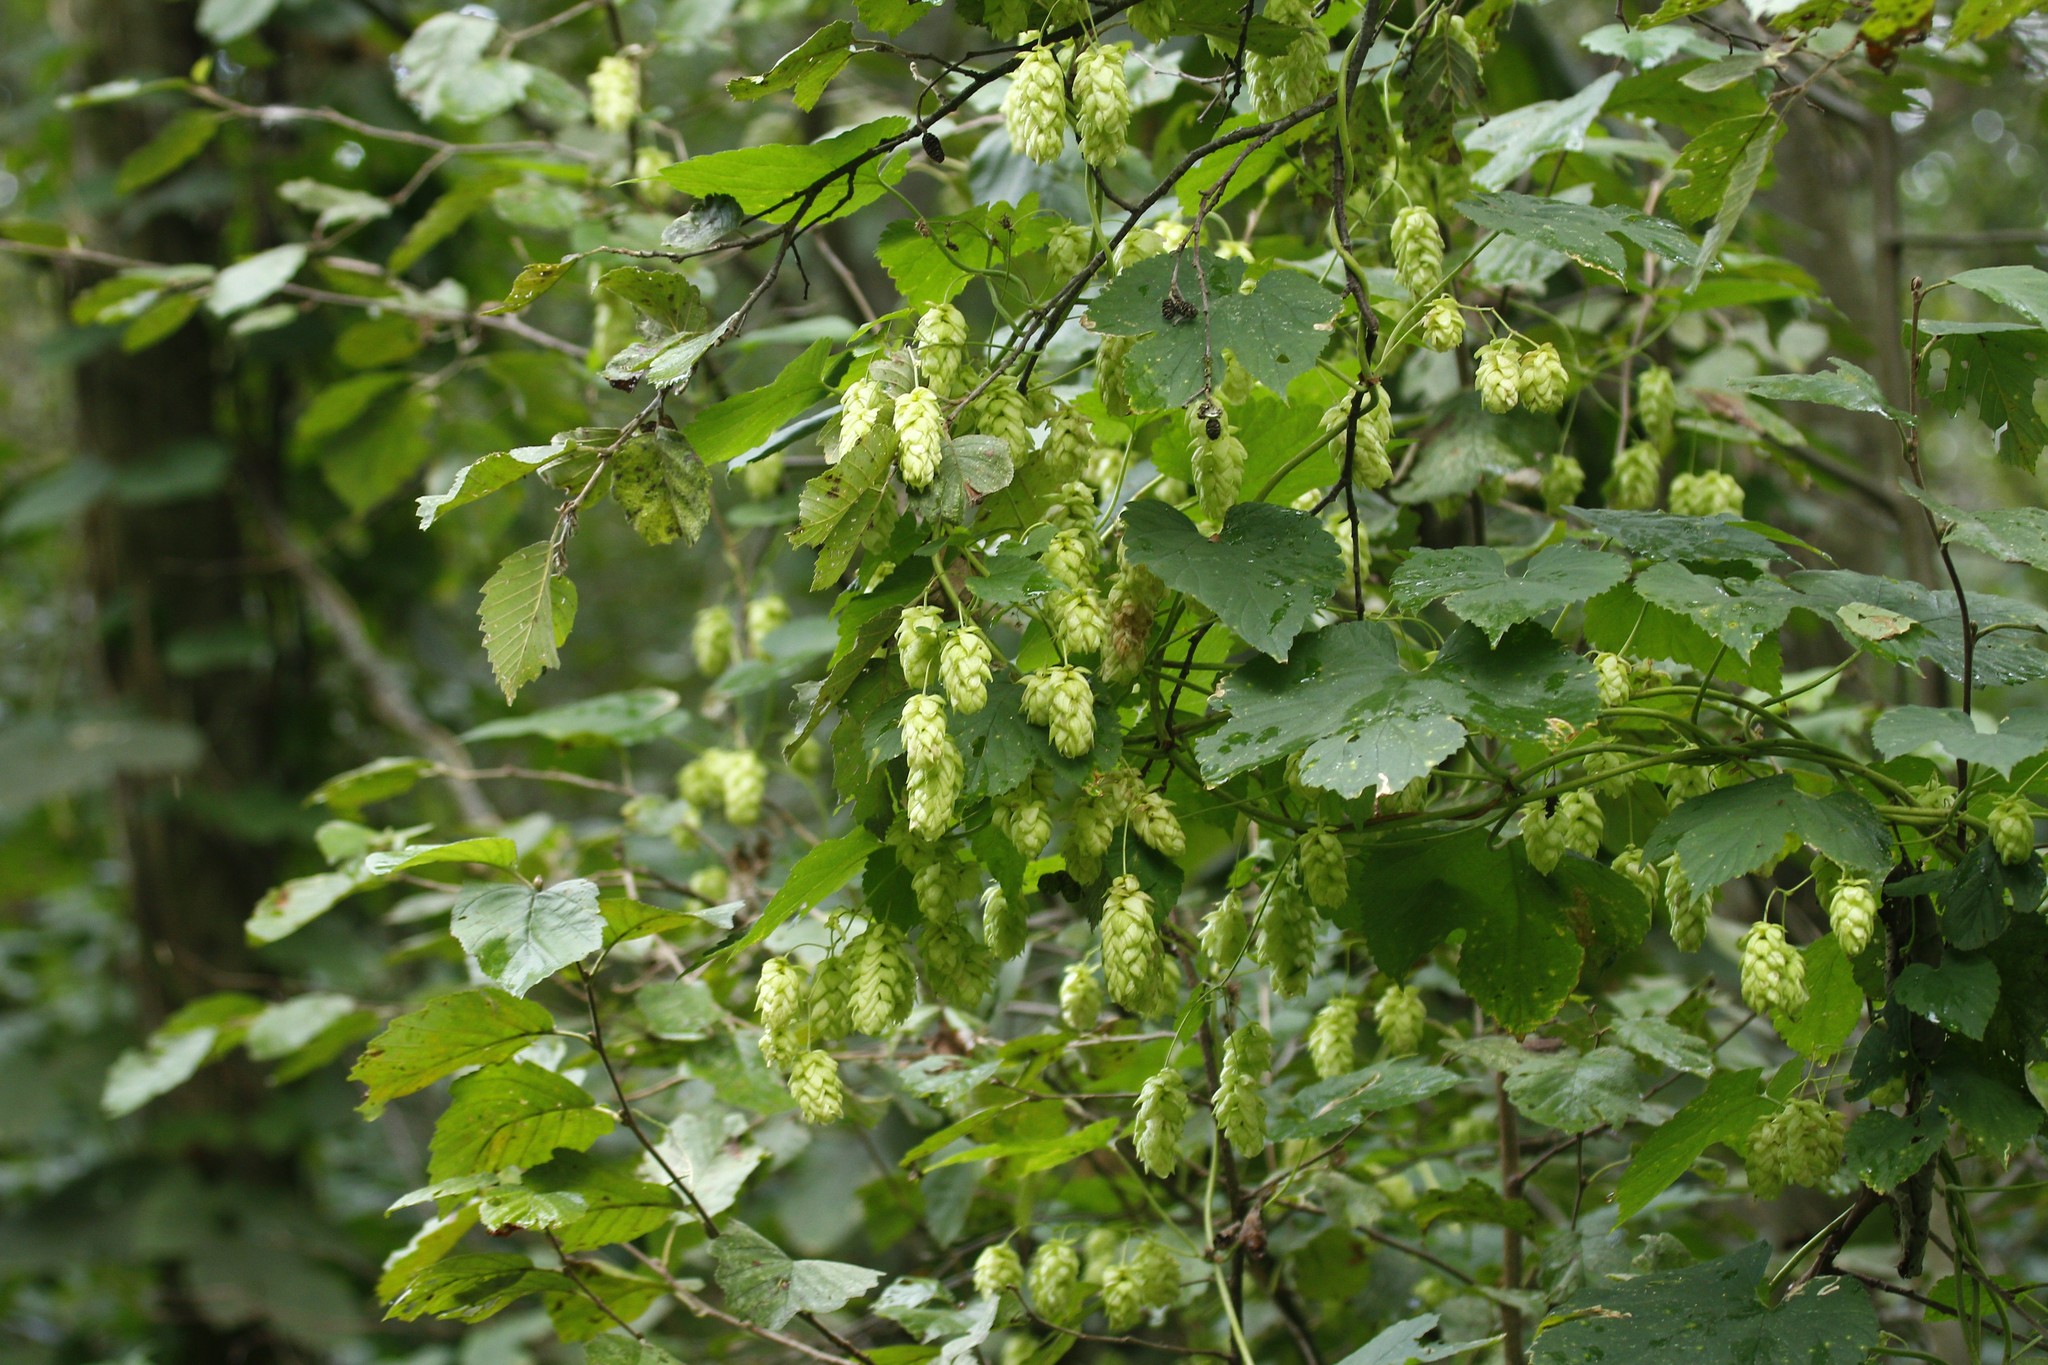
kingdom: Plantae
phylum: Tracheophyta
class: Magnoliopsida
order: Rosales
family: Cannabaceae
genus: Humulus
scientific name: Humulus lupulus
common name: Hop
